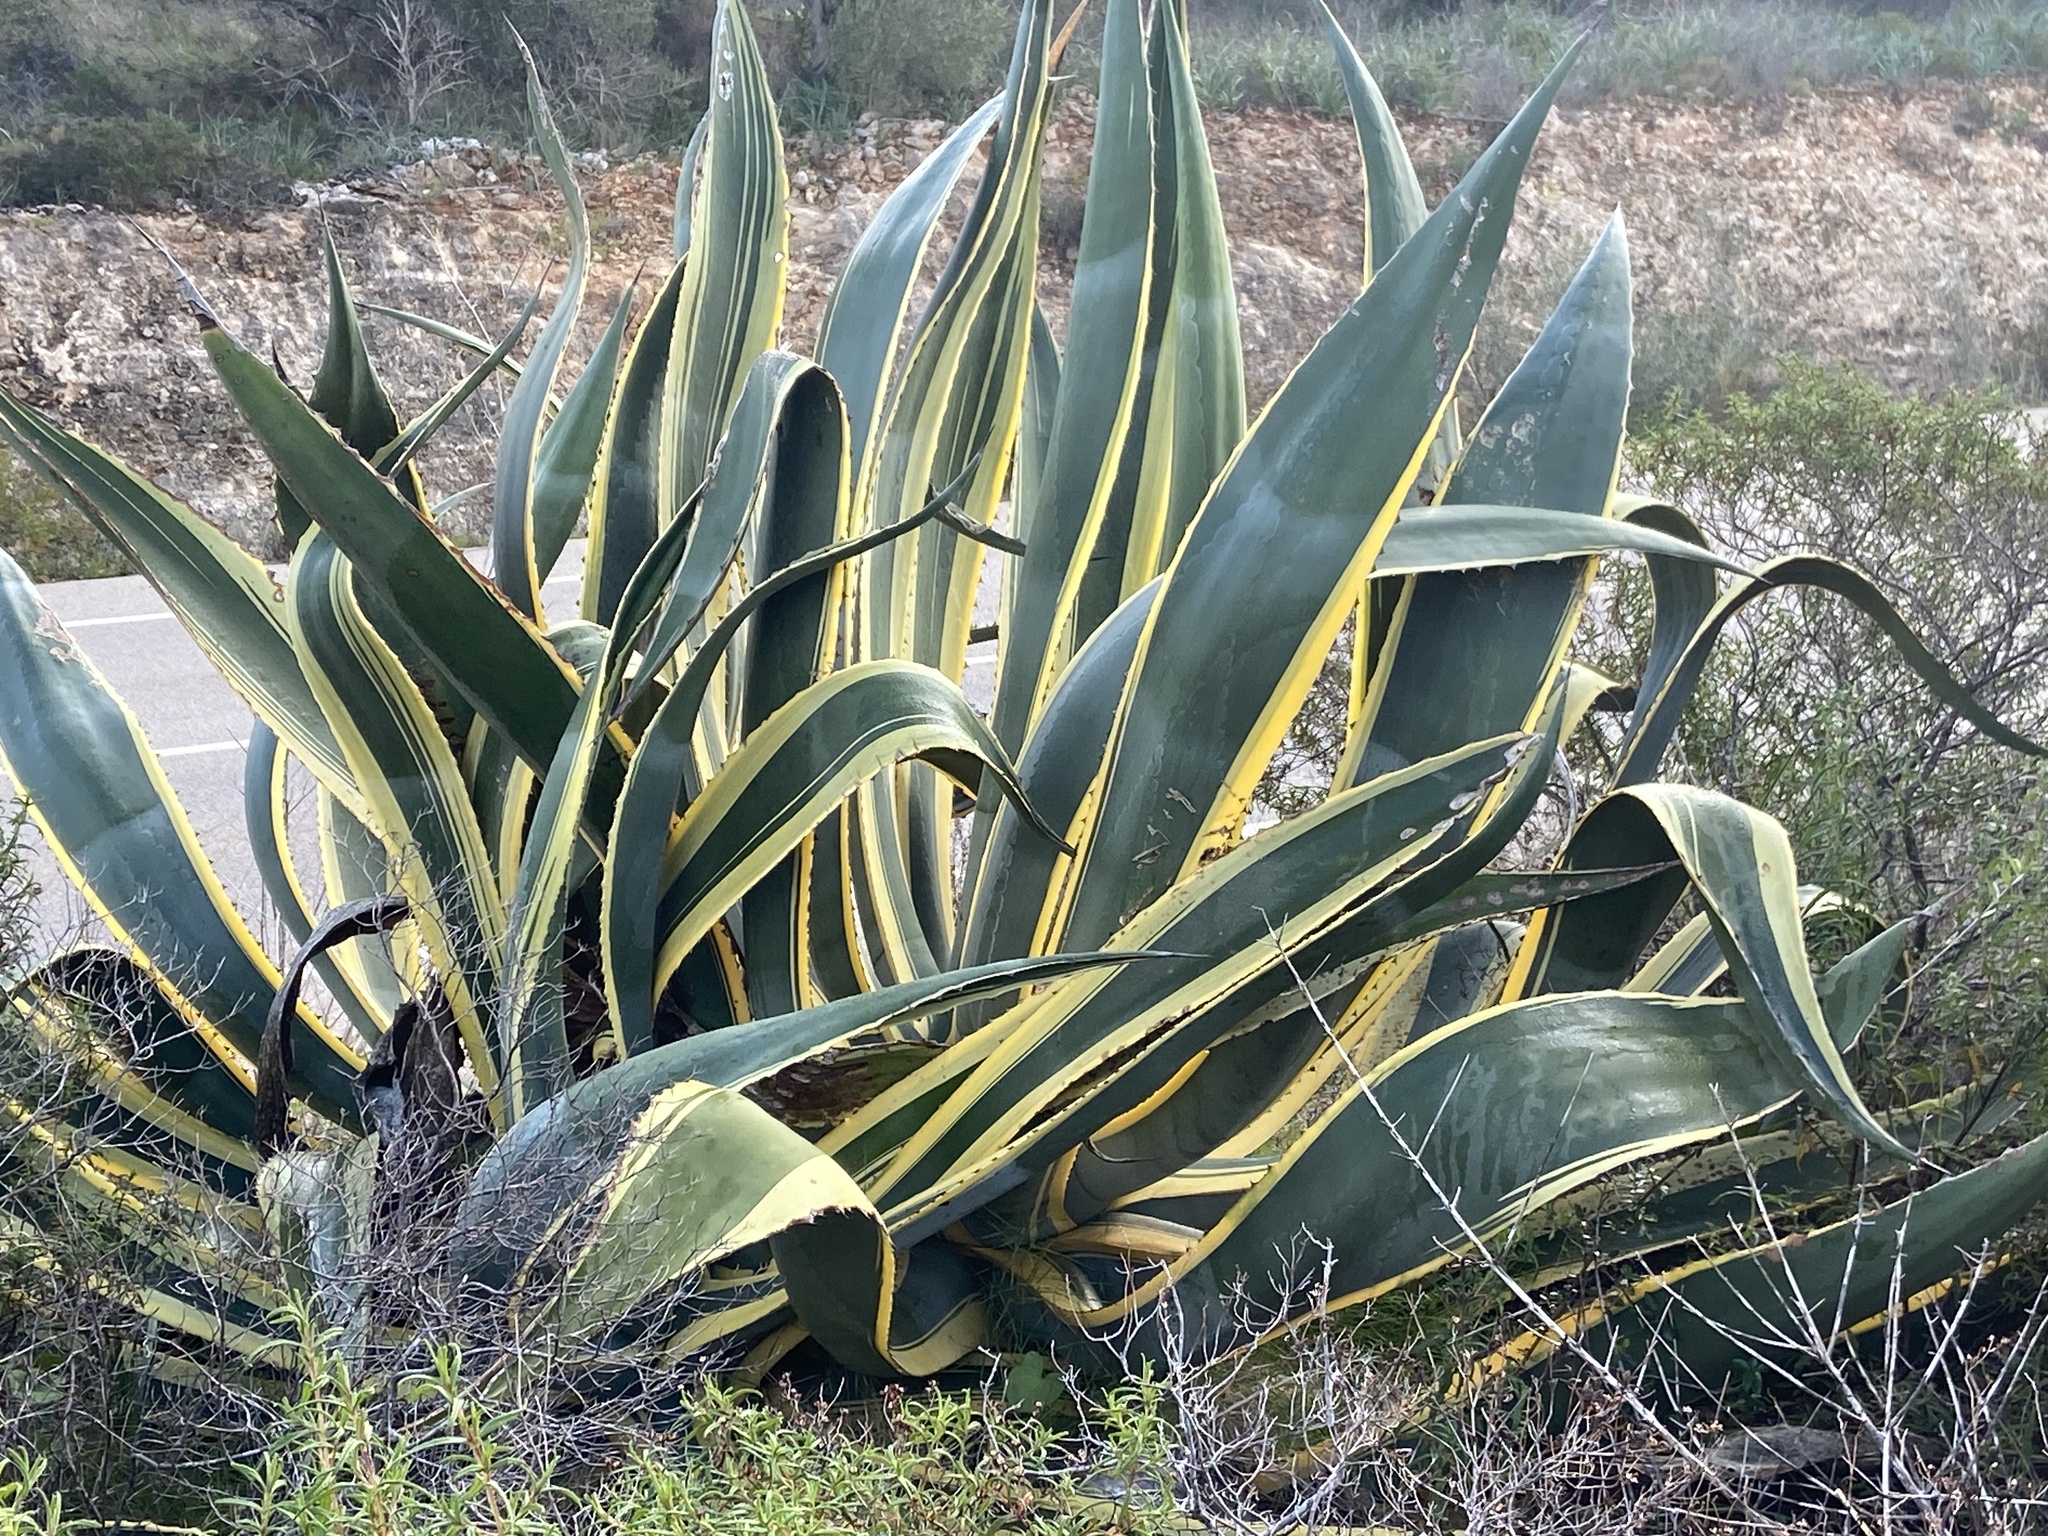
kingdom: Plantae
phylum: Tracheophyta
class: Liliopsida
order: Asparagales
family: Asparagaceae
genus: Agave
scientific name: Agave americana
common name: Centuryplant
